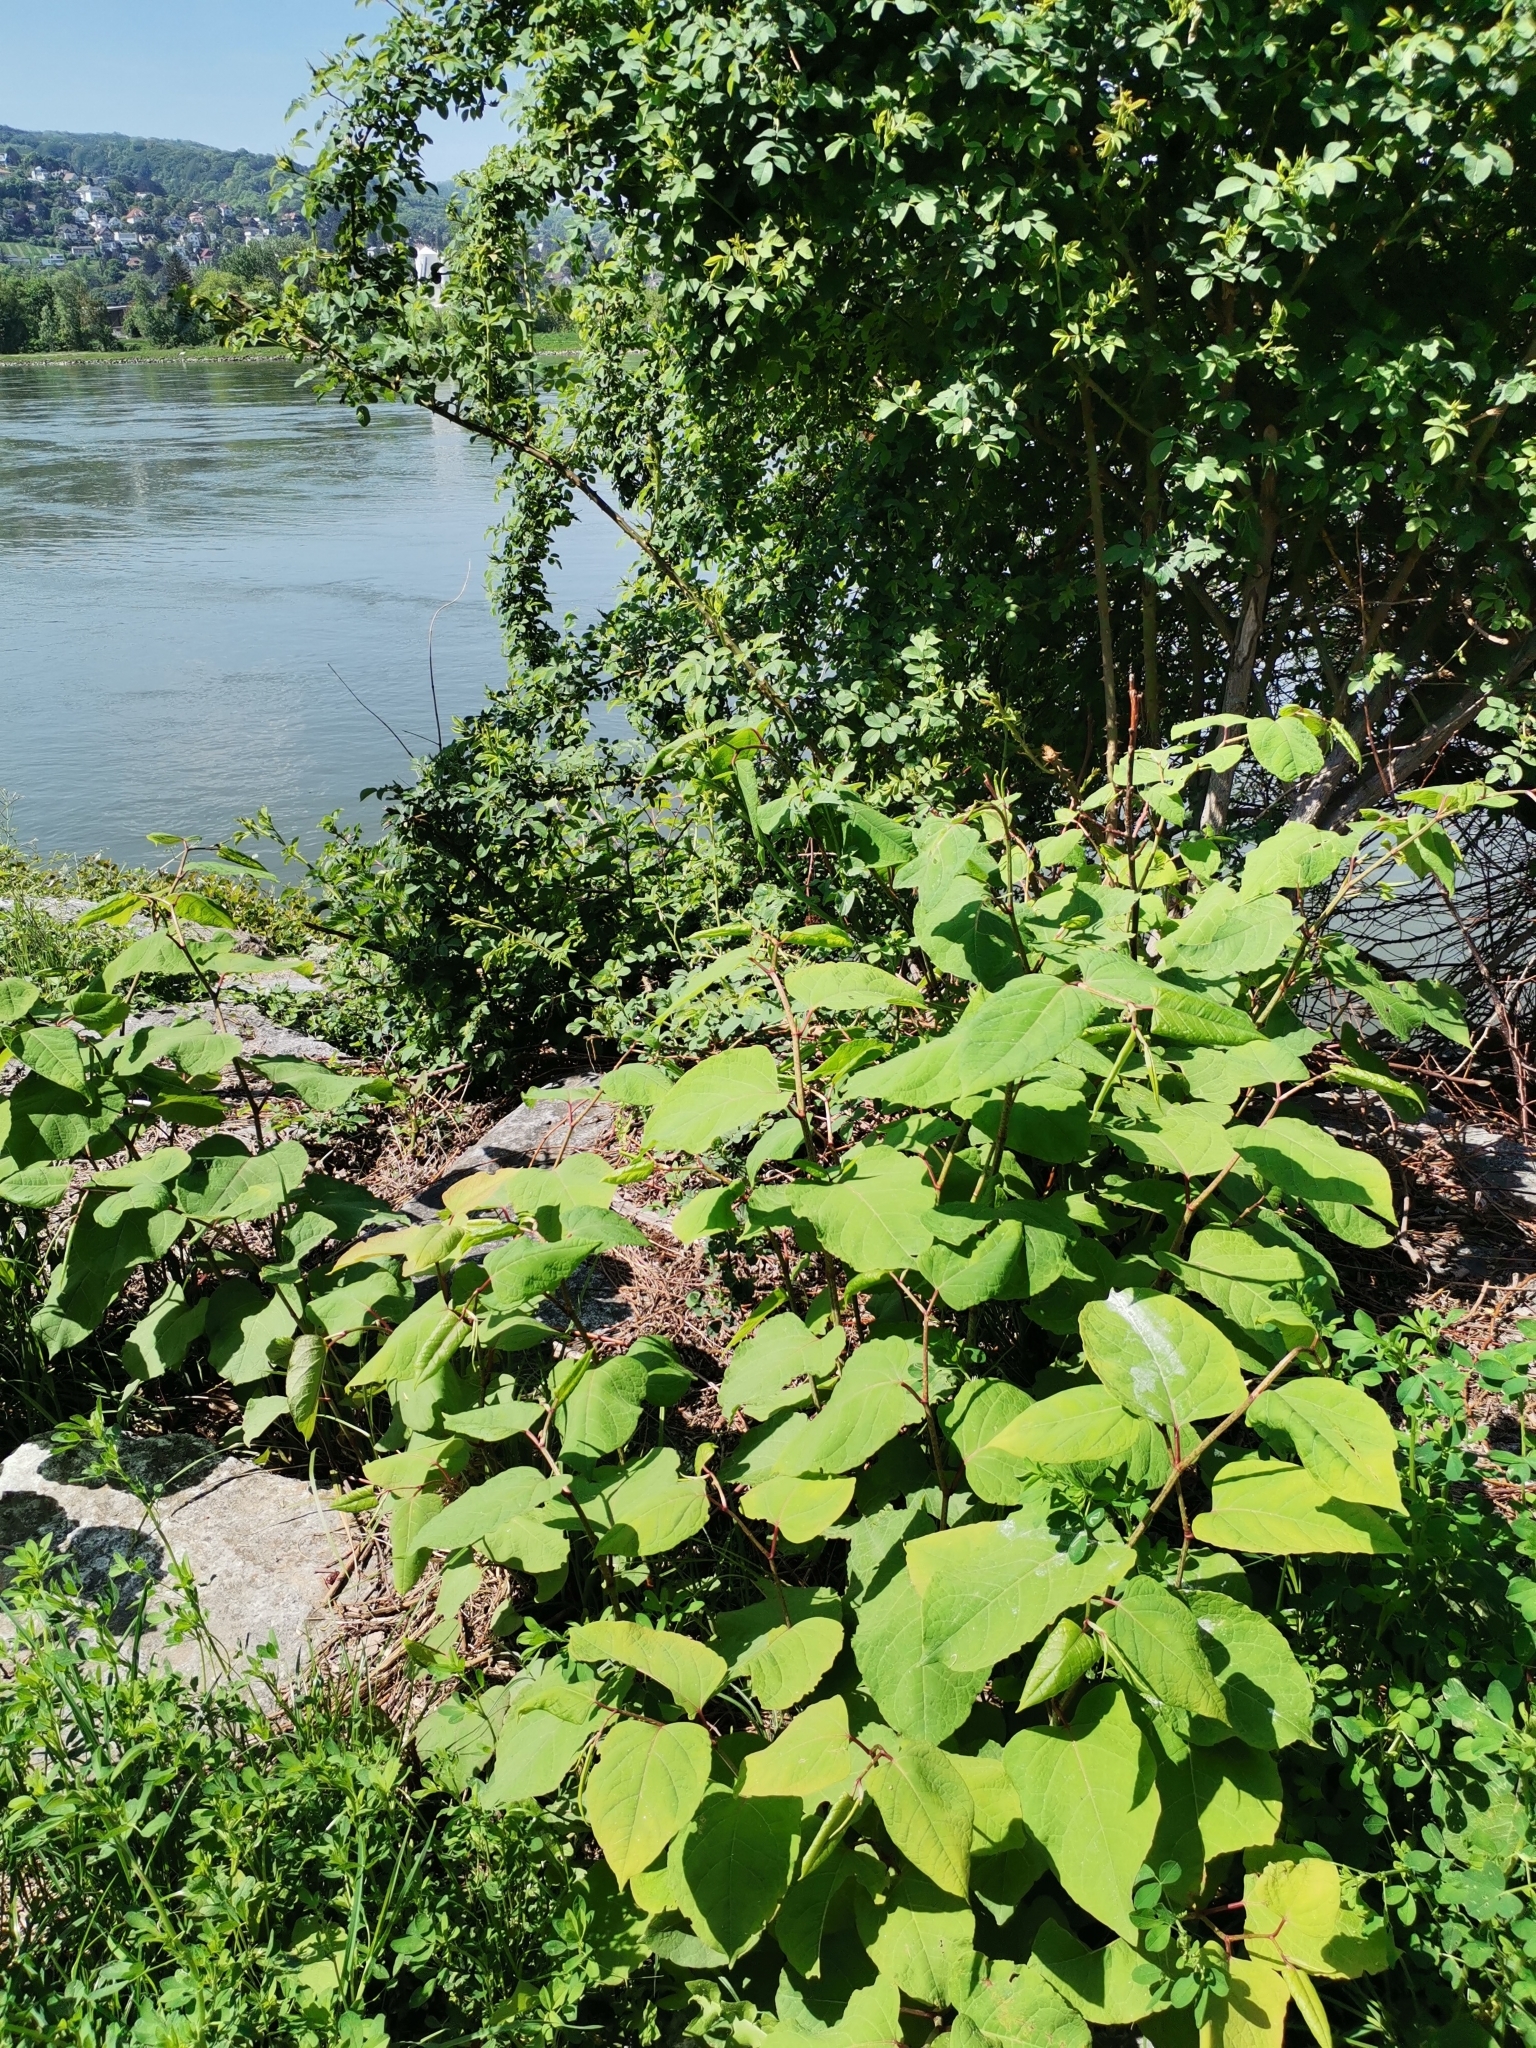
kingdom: Plantae
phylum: Tracheophyta
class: Magnoliopsida
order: Caryophyllales
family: Polygonaceae
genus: Reynoutria
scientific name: Reynoutria bohemica
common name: Bohemian knotweed
